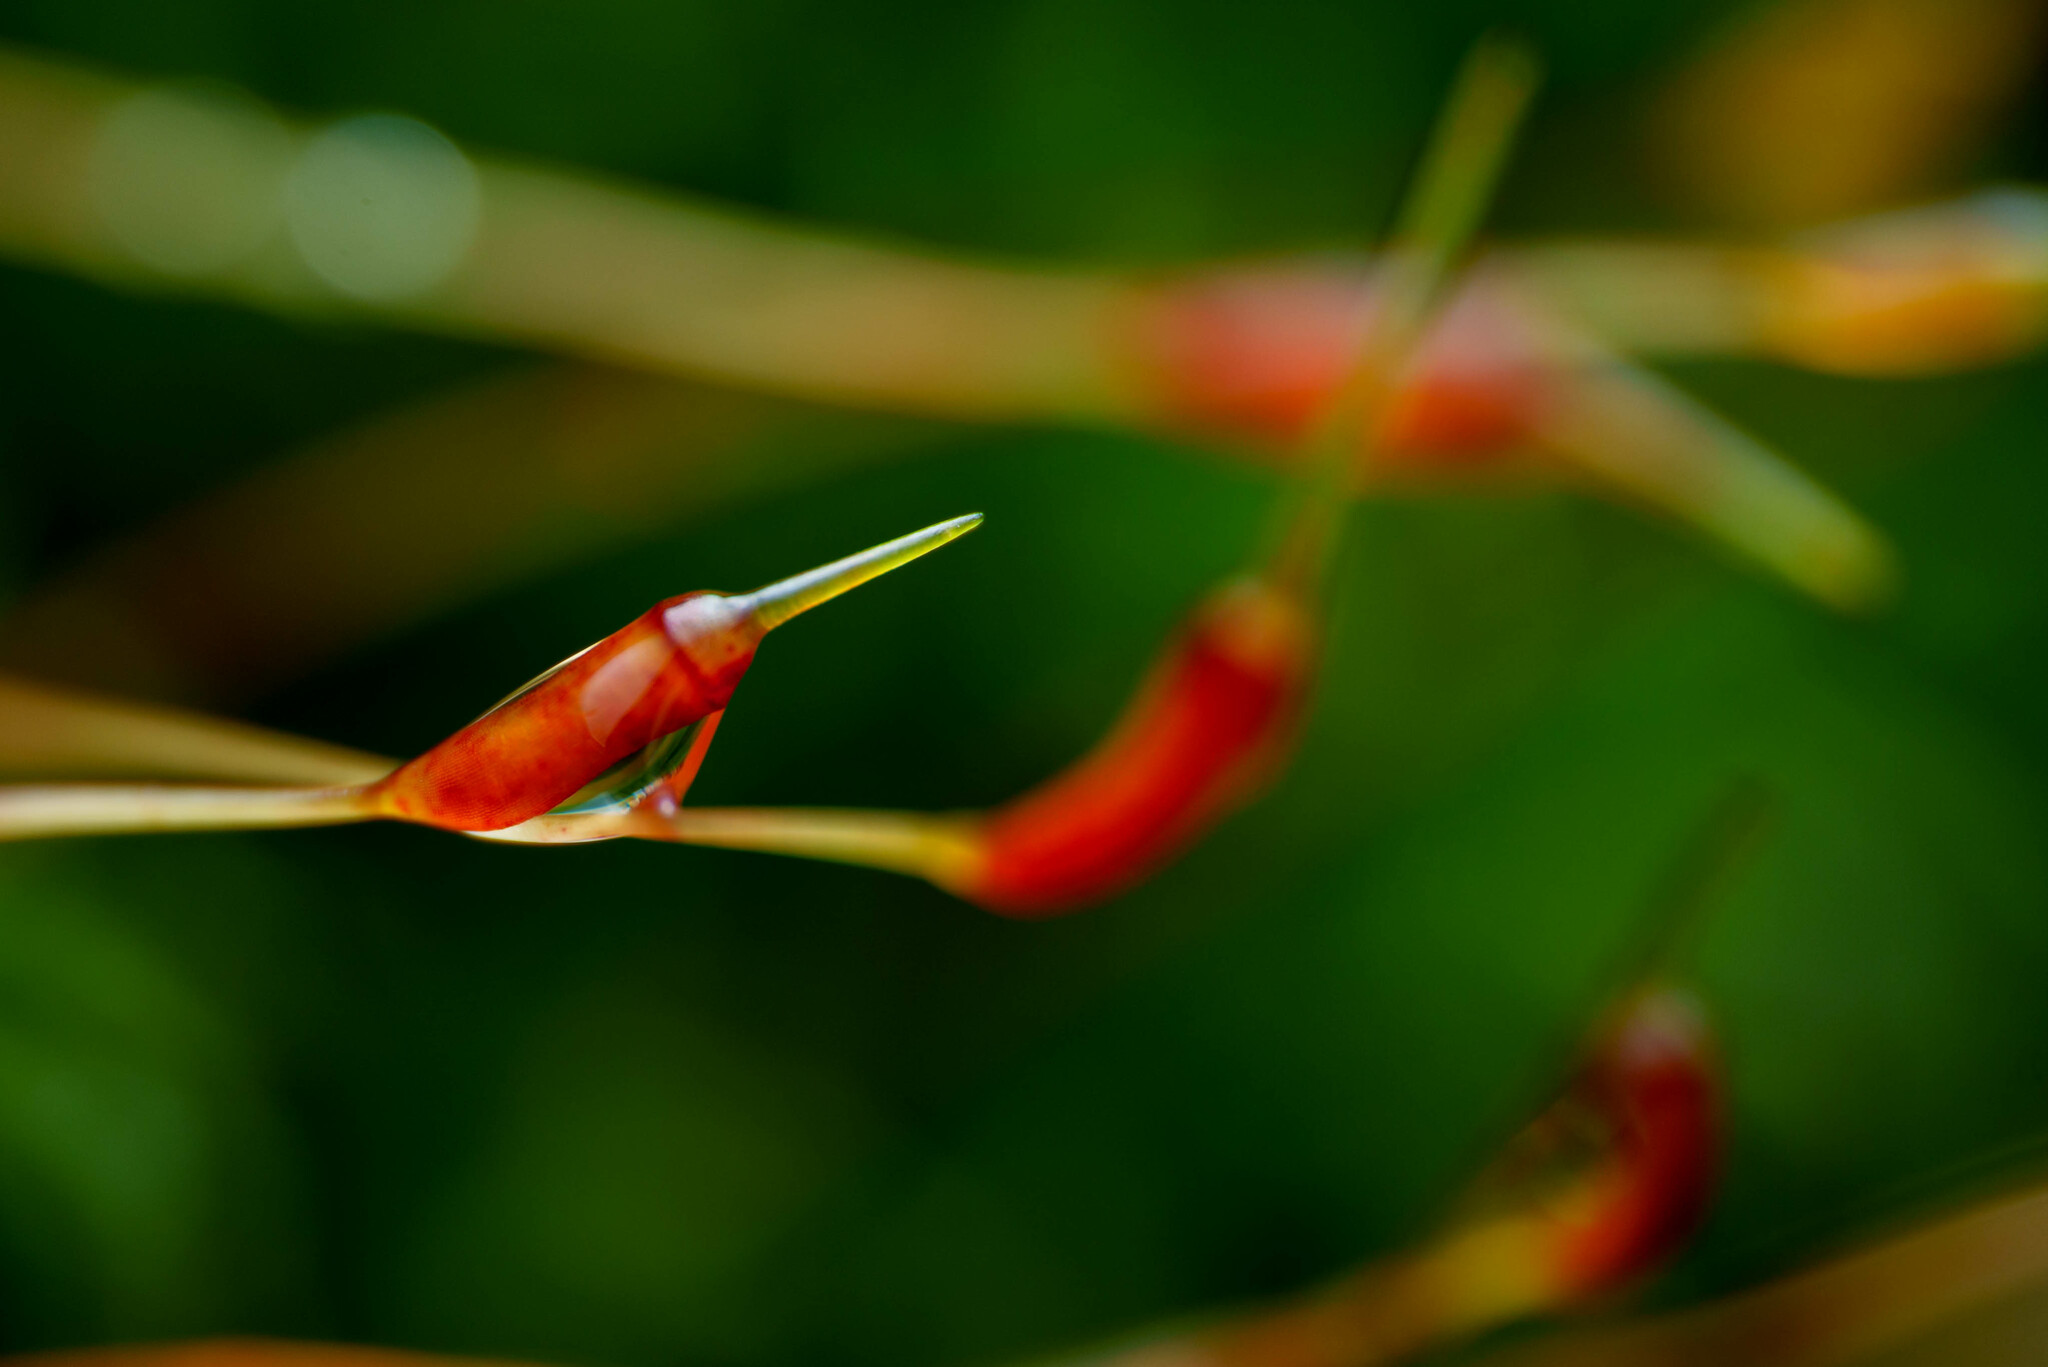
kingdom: Plantae
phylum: Bryophyta
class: Polytrichopsida
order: Polytrichales
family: Polytrichaceae
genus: Atrichum
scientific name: Atrichum undulatum
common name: Common smoothcap
